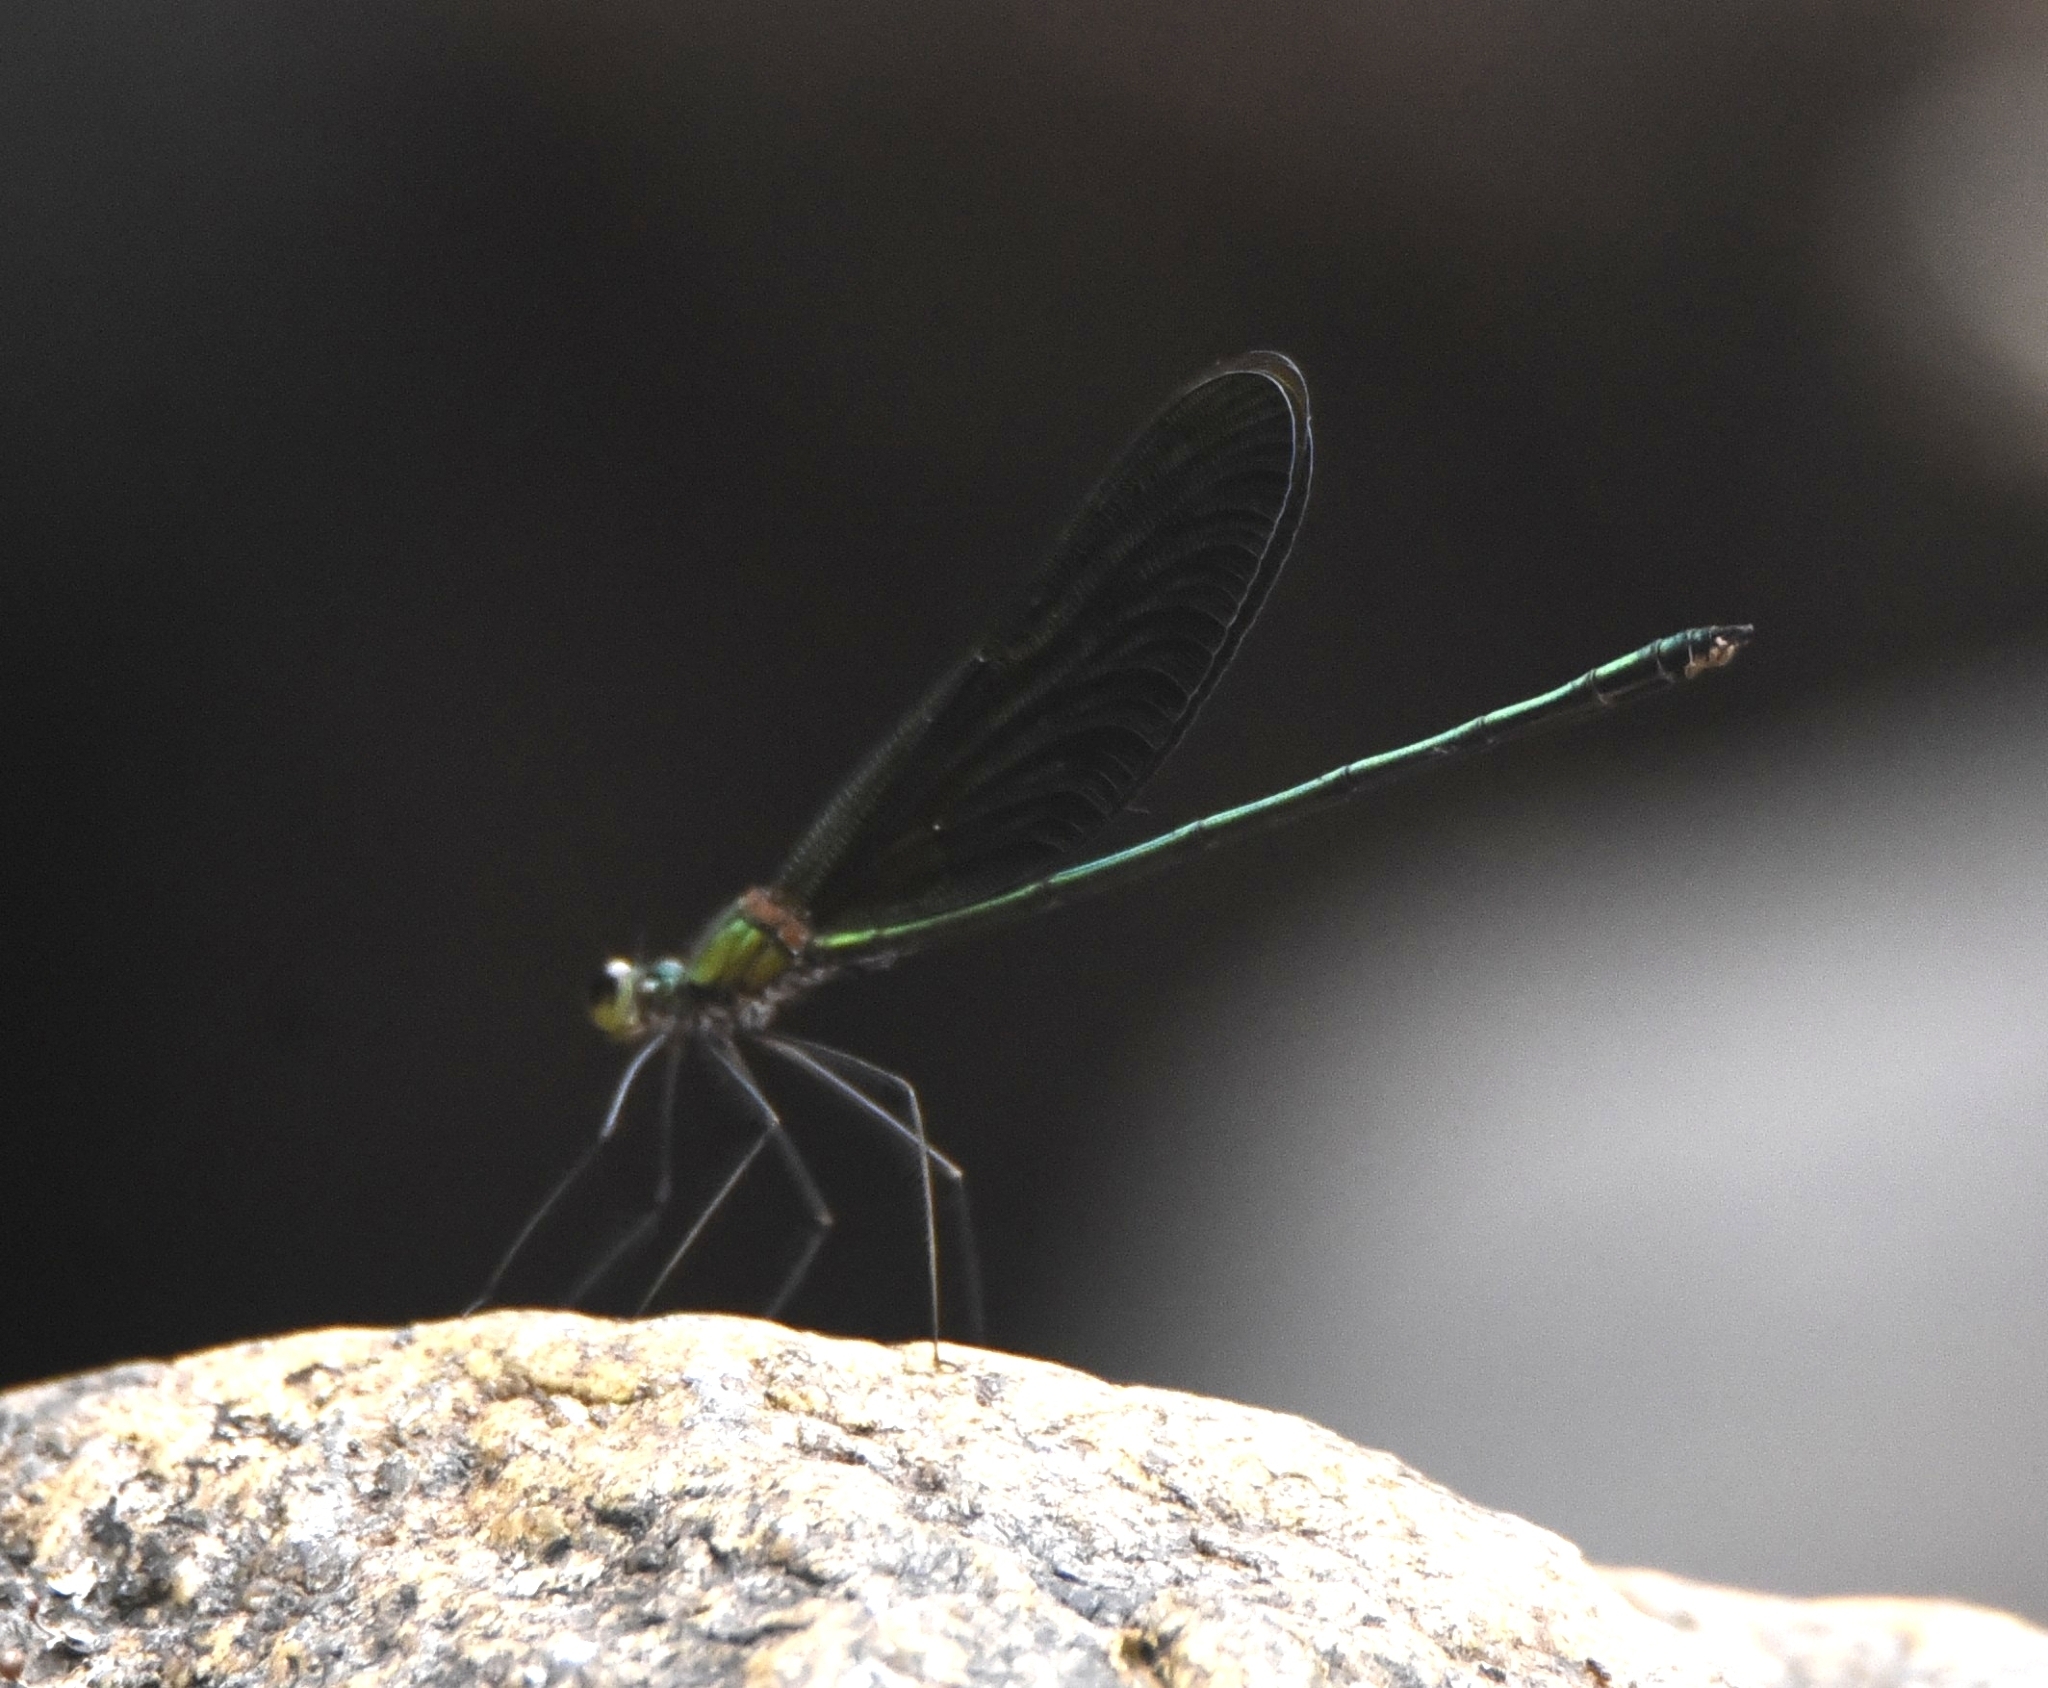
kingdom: Animalia
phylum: Arthropoda
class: Insecta
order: Odonata
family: Calopterygidae
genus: Neurobasis
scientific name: Neurobasis chinensis
